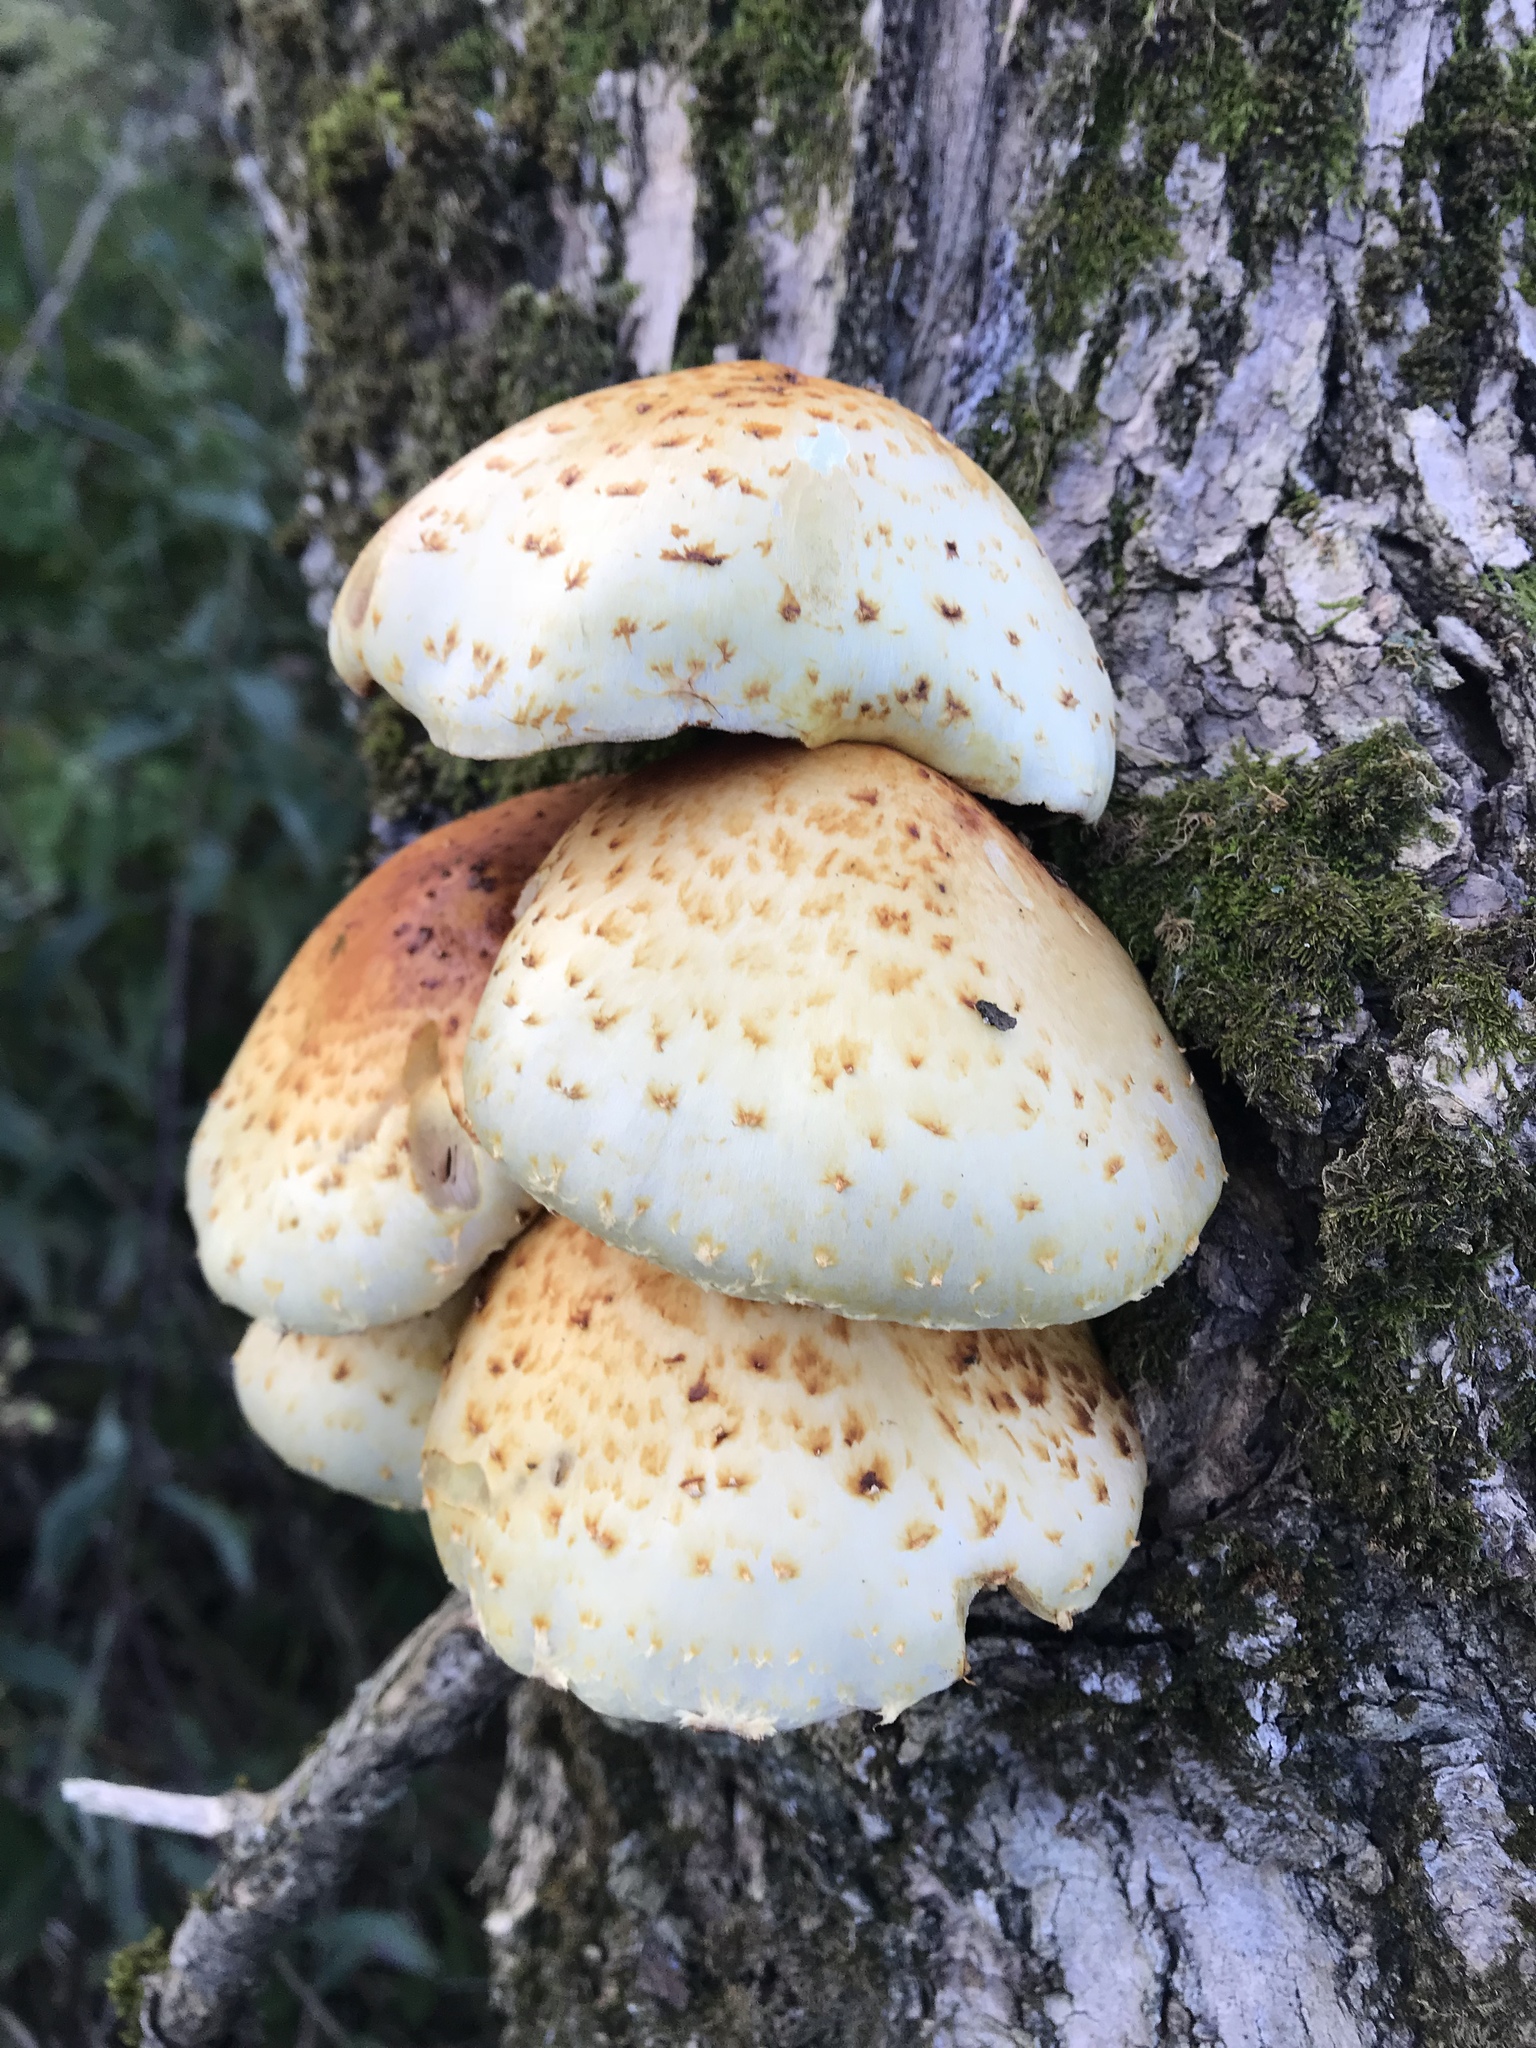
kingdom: Fungi
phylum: Basidiomycota
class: Agaricomycetes
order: Agaricales
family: Strophariaceae
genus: Pholiota
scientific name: Pholiota aurivella
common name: Golden scalycap
